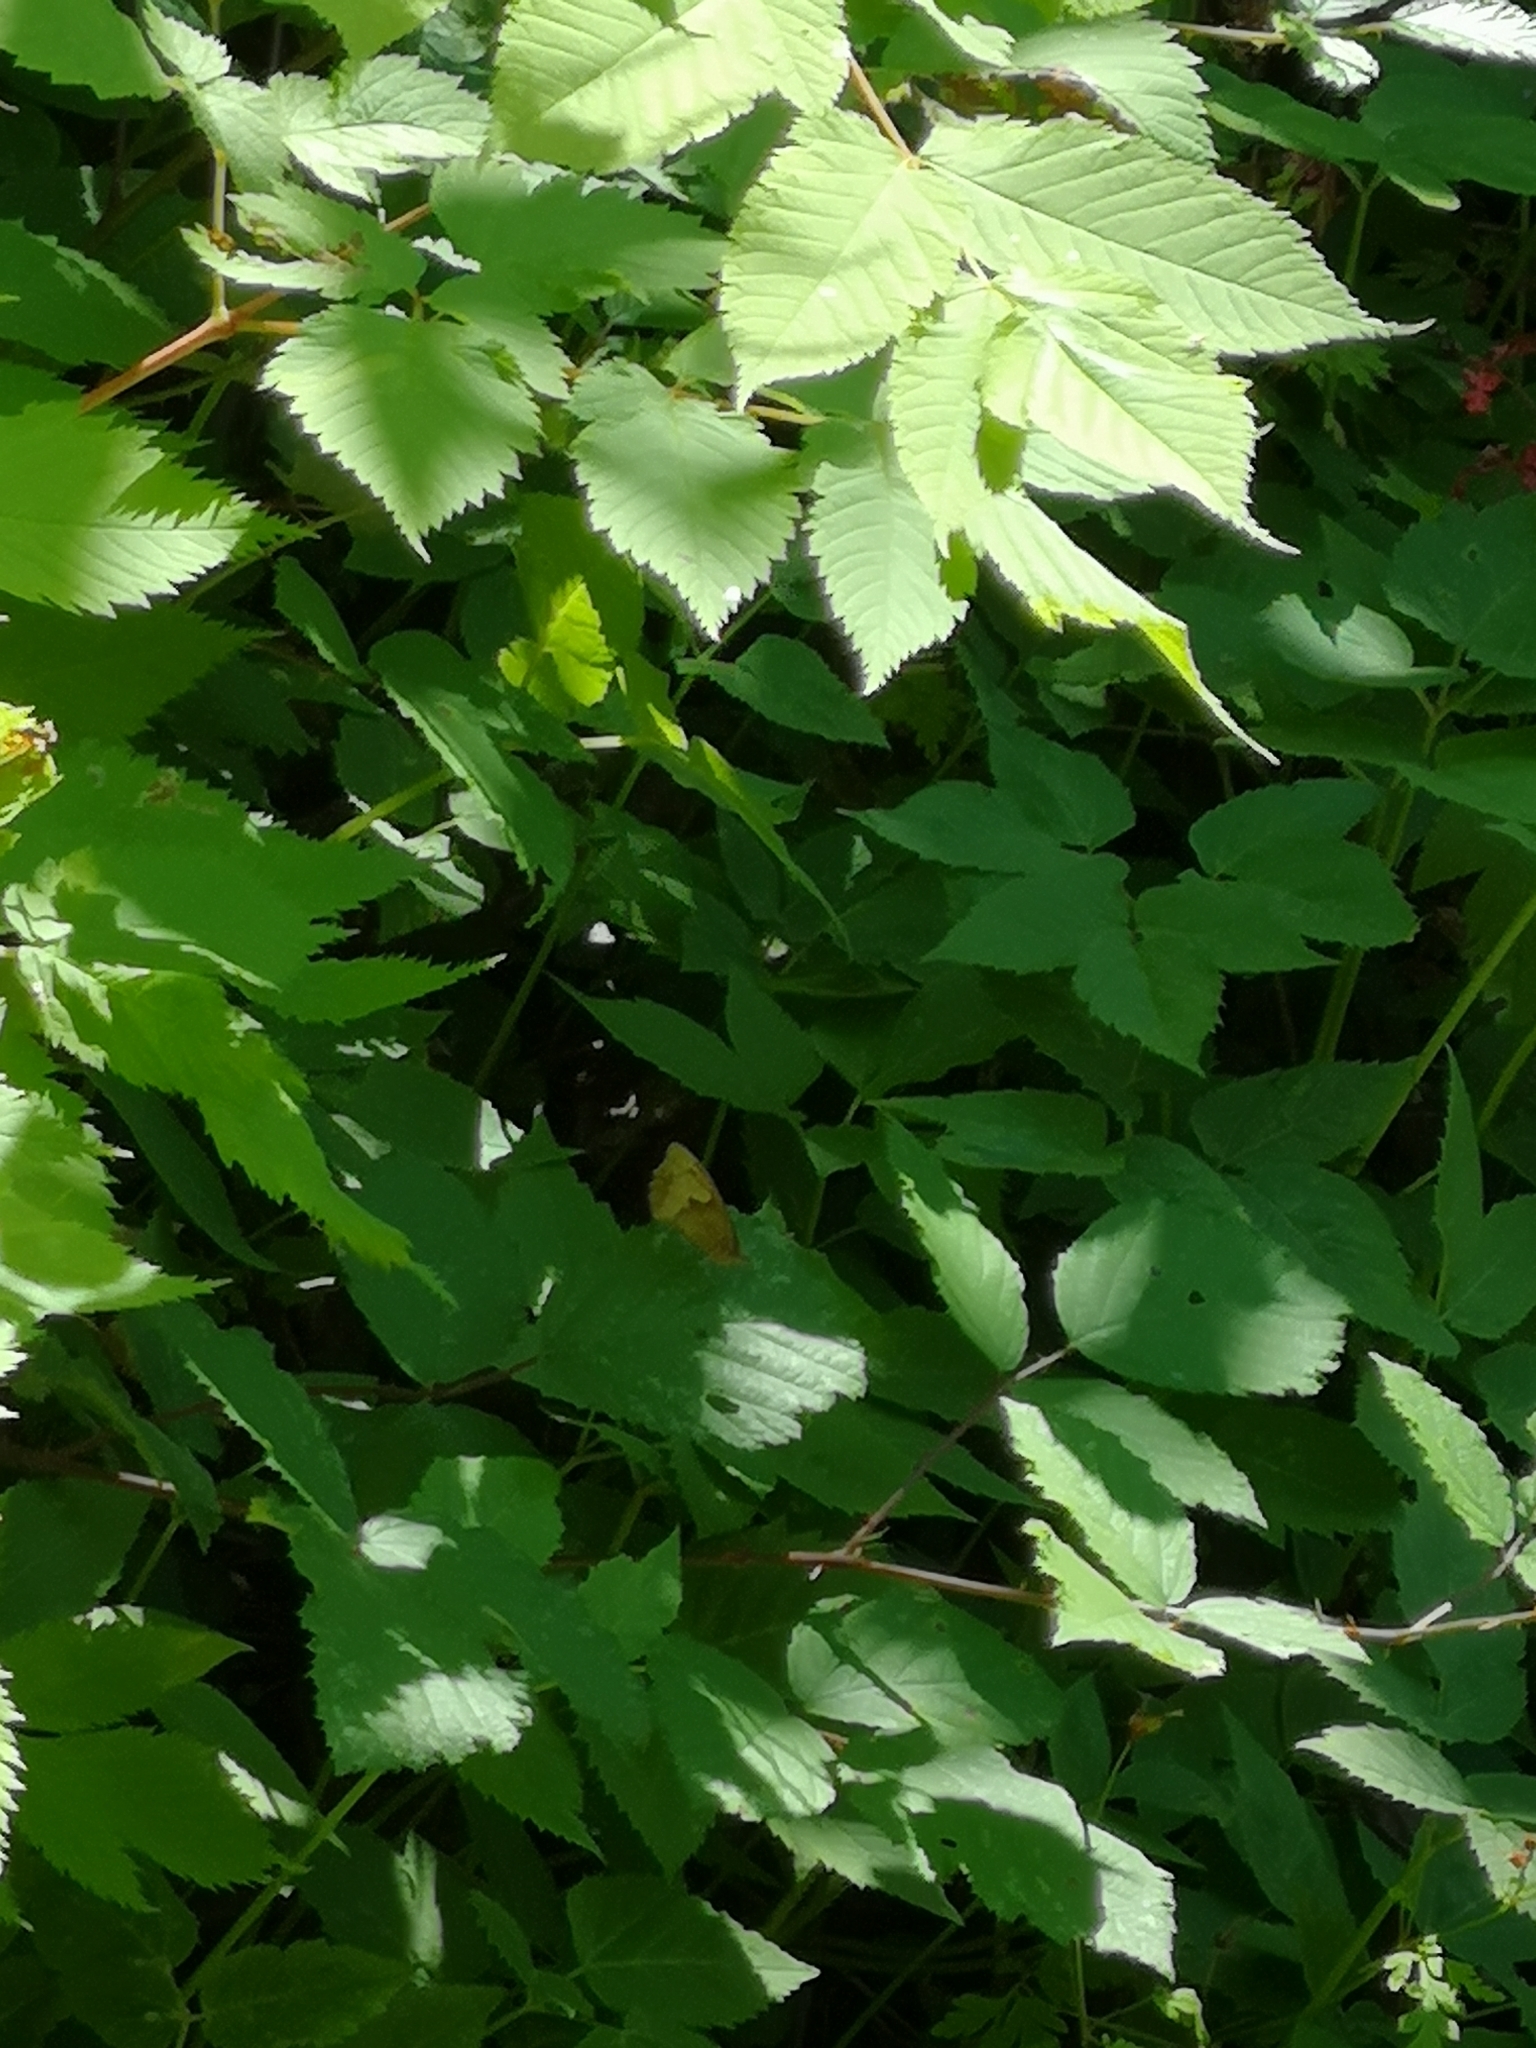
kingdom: Animalia
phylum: Arthropoda
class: Insecta
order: Lepidoptera
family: Nymphalidae
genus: Maniola
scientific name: Maniola jurtina
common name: Meadow brown
